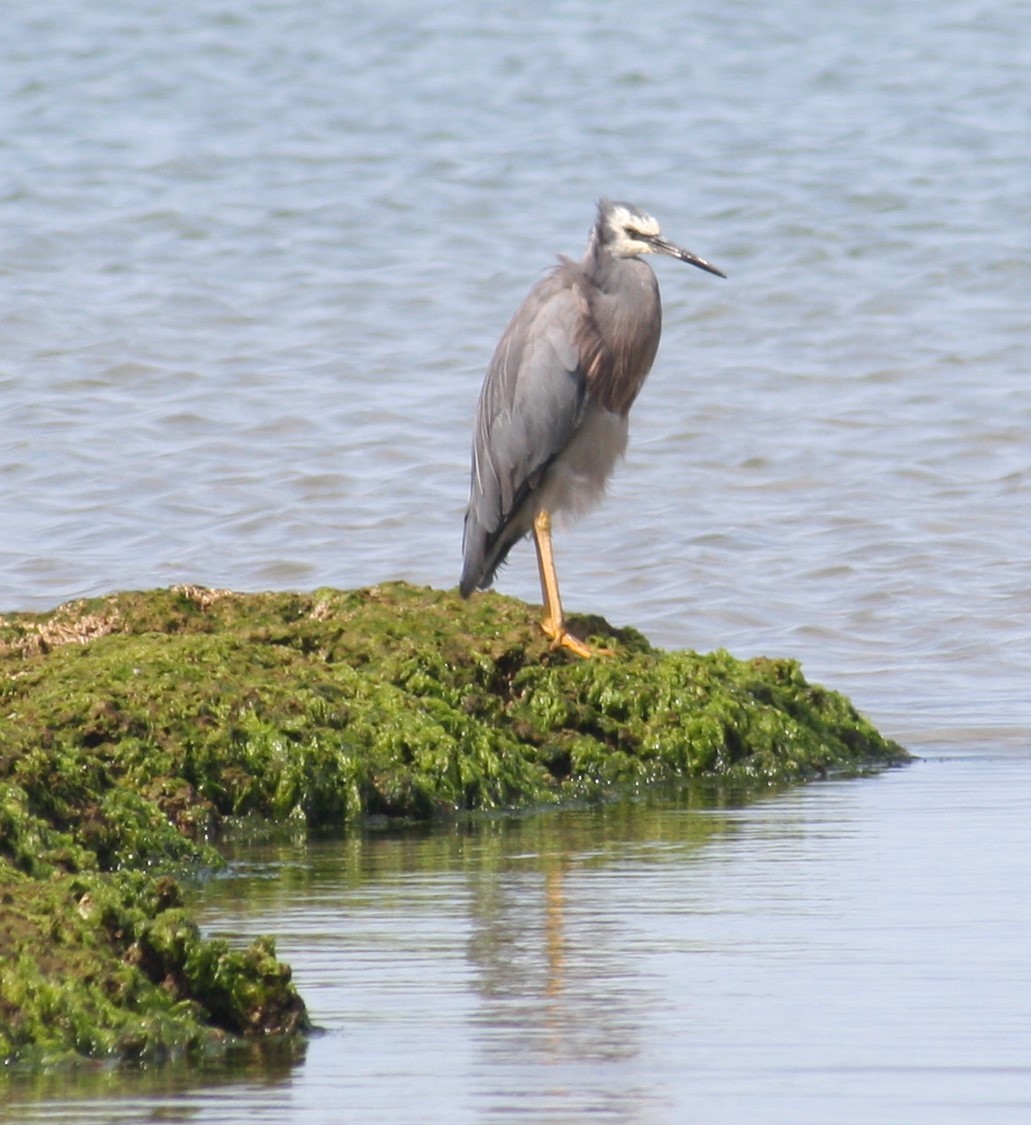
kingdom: Animalia
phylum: Chordata
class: Aves
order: Pelecaniformes
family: Ardeidae
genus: Egretta
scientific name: Egretta novaehollandiae
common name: White-faced heron
